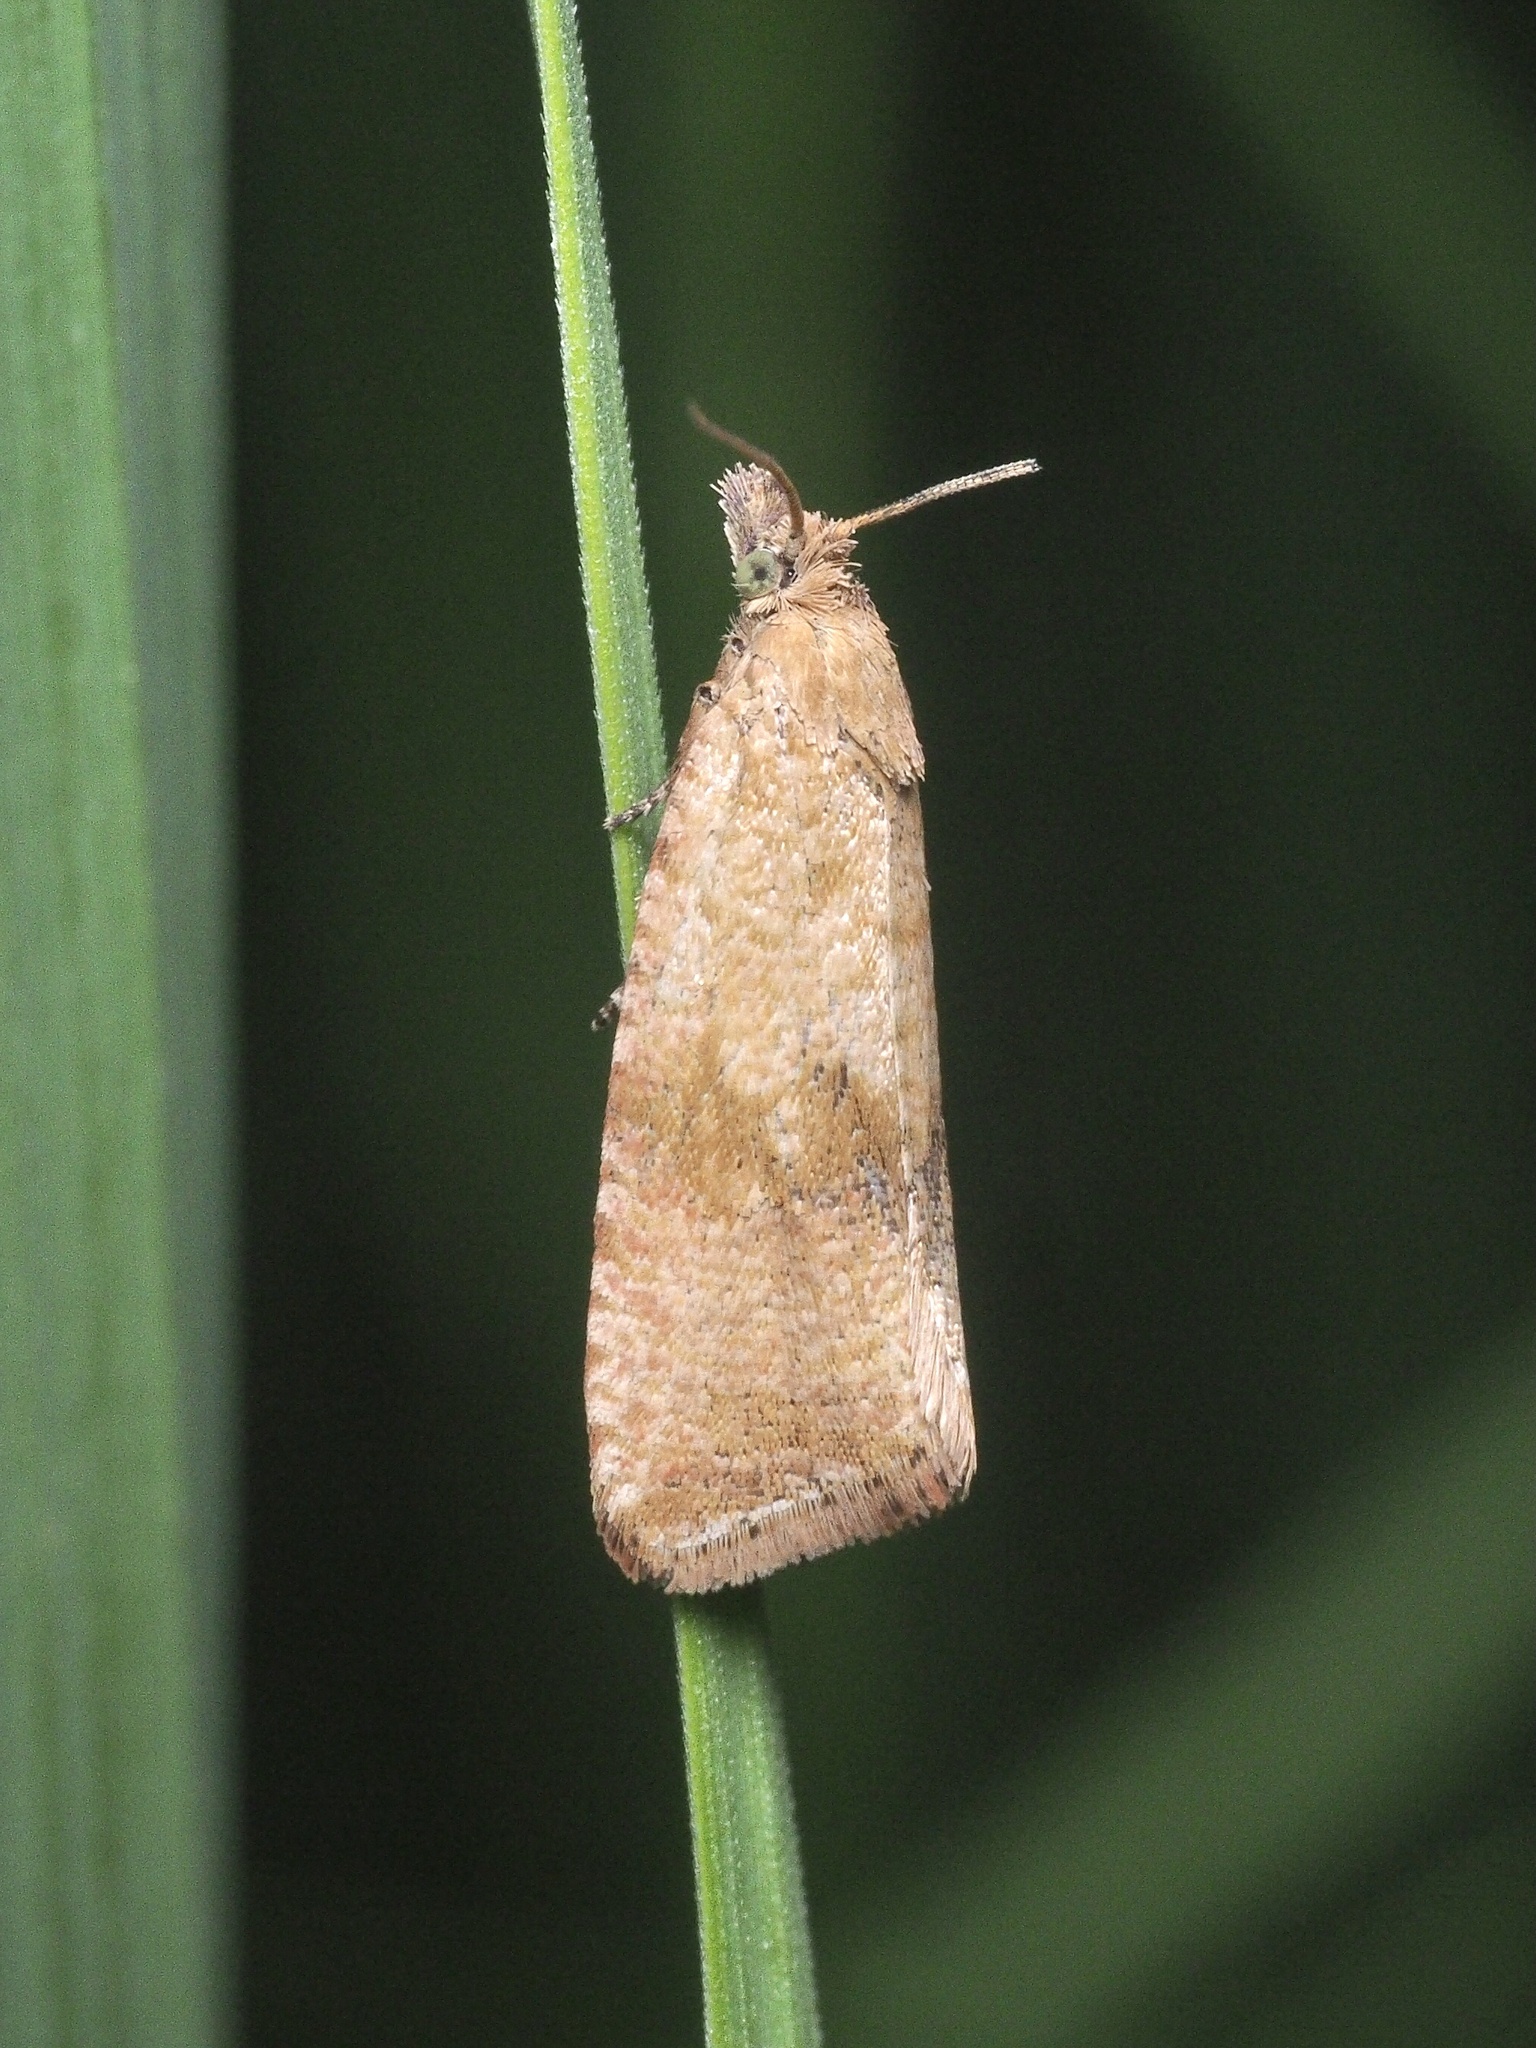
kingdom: Animalia
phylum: Arthropoda
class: Insecta
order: Lepidoptera
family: Tortricidae
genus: Celypha
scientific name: Celypha striana
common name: Barred marble
